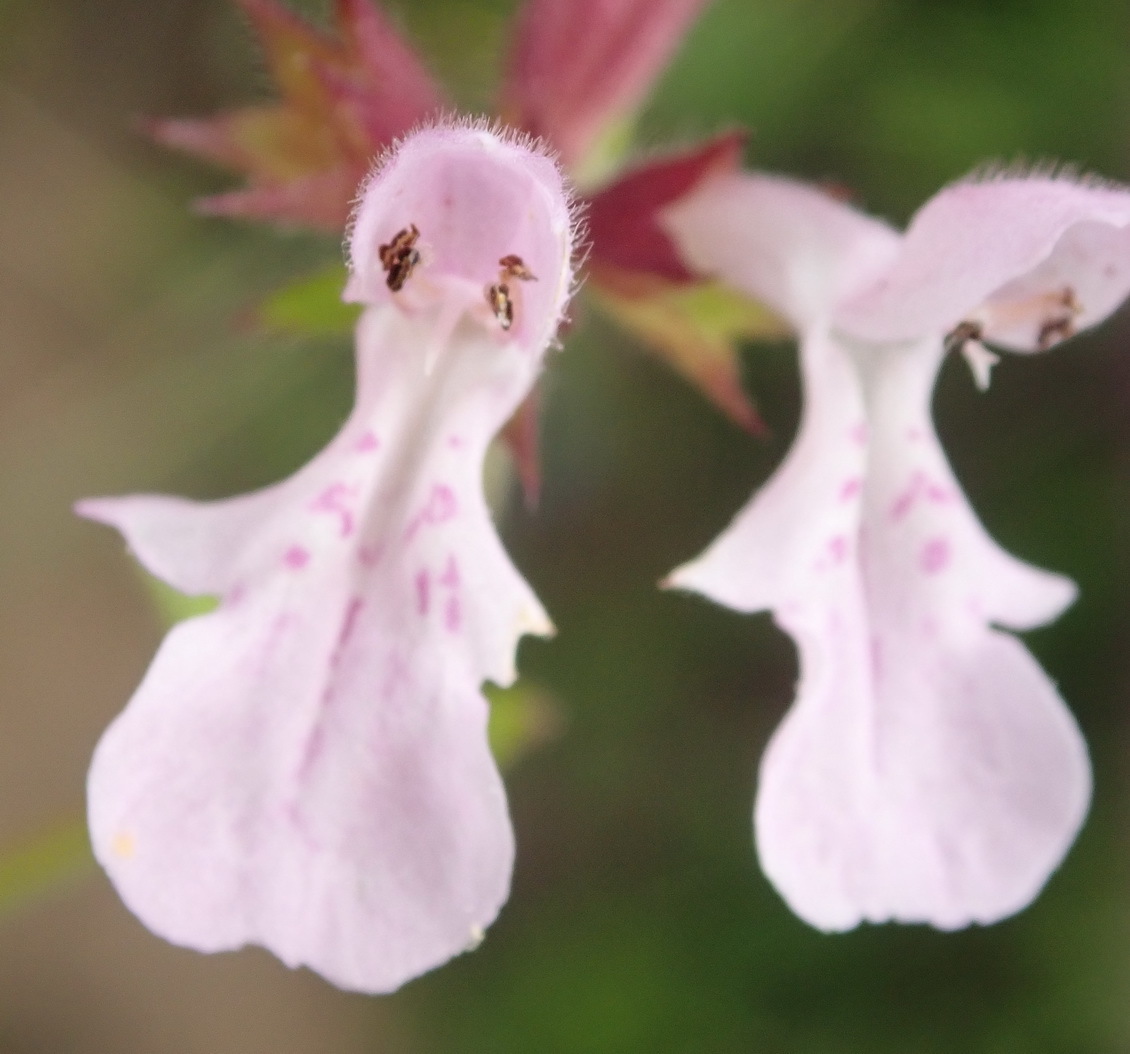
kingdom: Plantae
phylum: Tracheophyta
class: Magnoliopsida
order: Lamiales
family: Lamiaceae
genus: Stachys
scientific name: Stachys aethiopica
